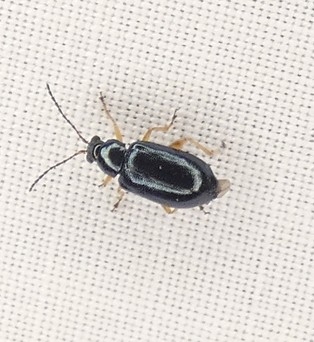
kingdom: Animalia
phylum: Arthropoda
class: Insecta
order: Coleoptera
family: Chrysomelidae
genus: Lysathia
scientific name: Lysathia ludoviciana
